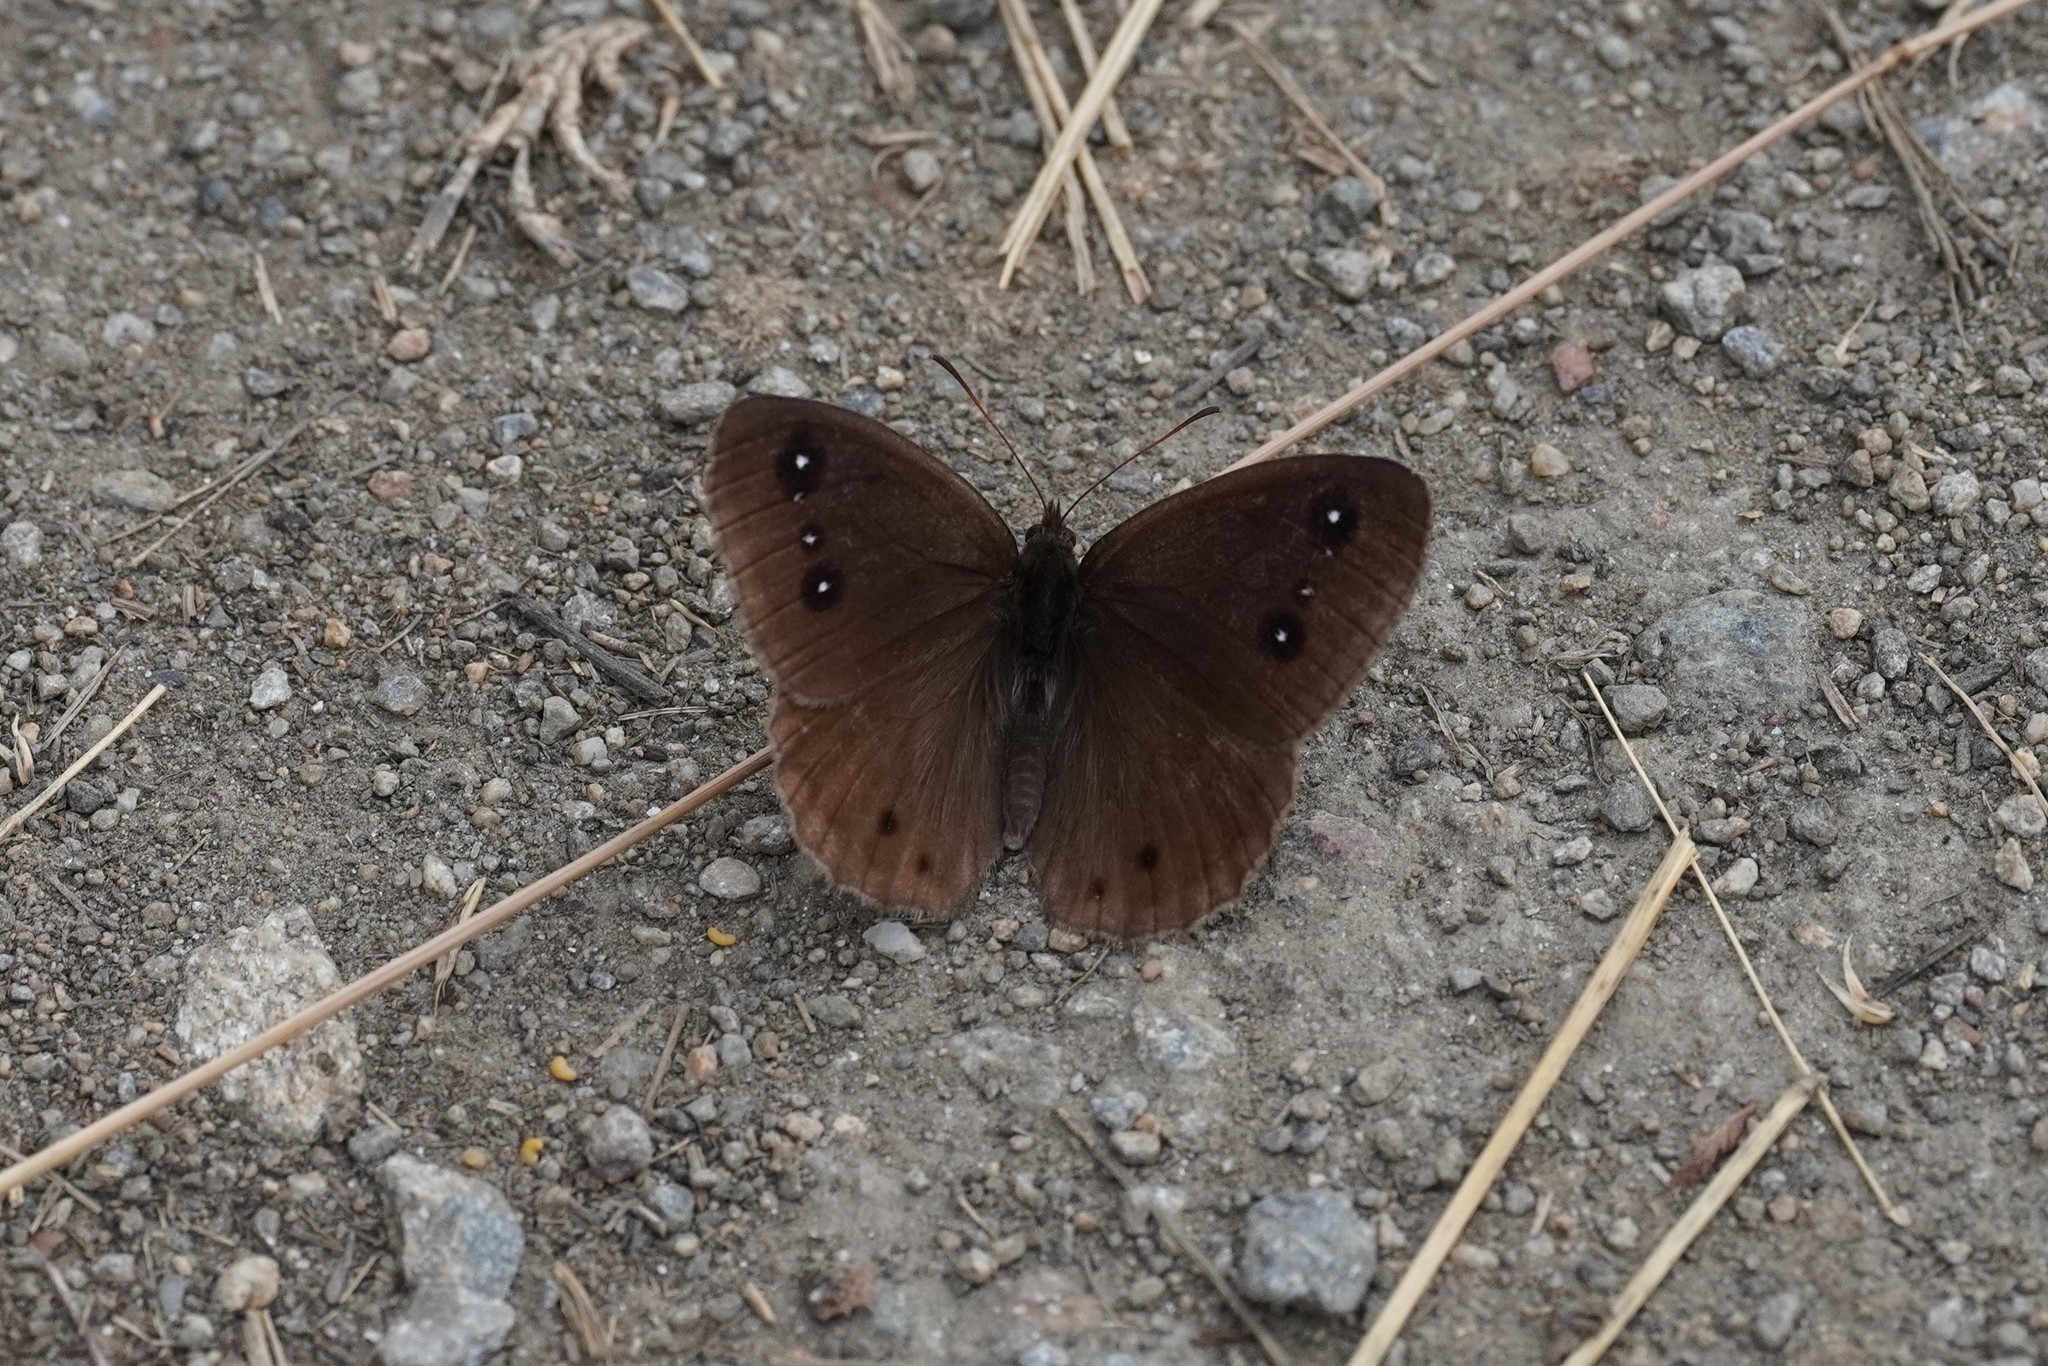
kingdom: Animalia
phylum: Arthropoda
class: Insecta
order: Lepidoptera
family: Nymphalidae
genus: Satyrus
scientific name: Satyrus ferula
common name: Great sooty satyr
